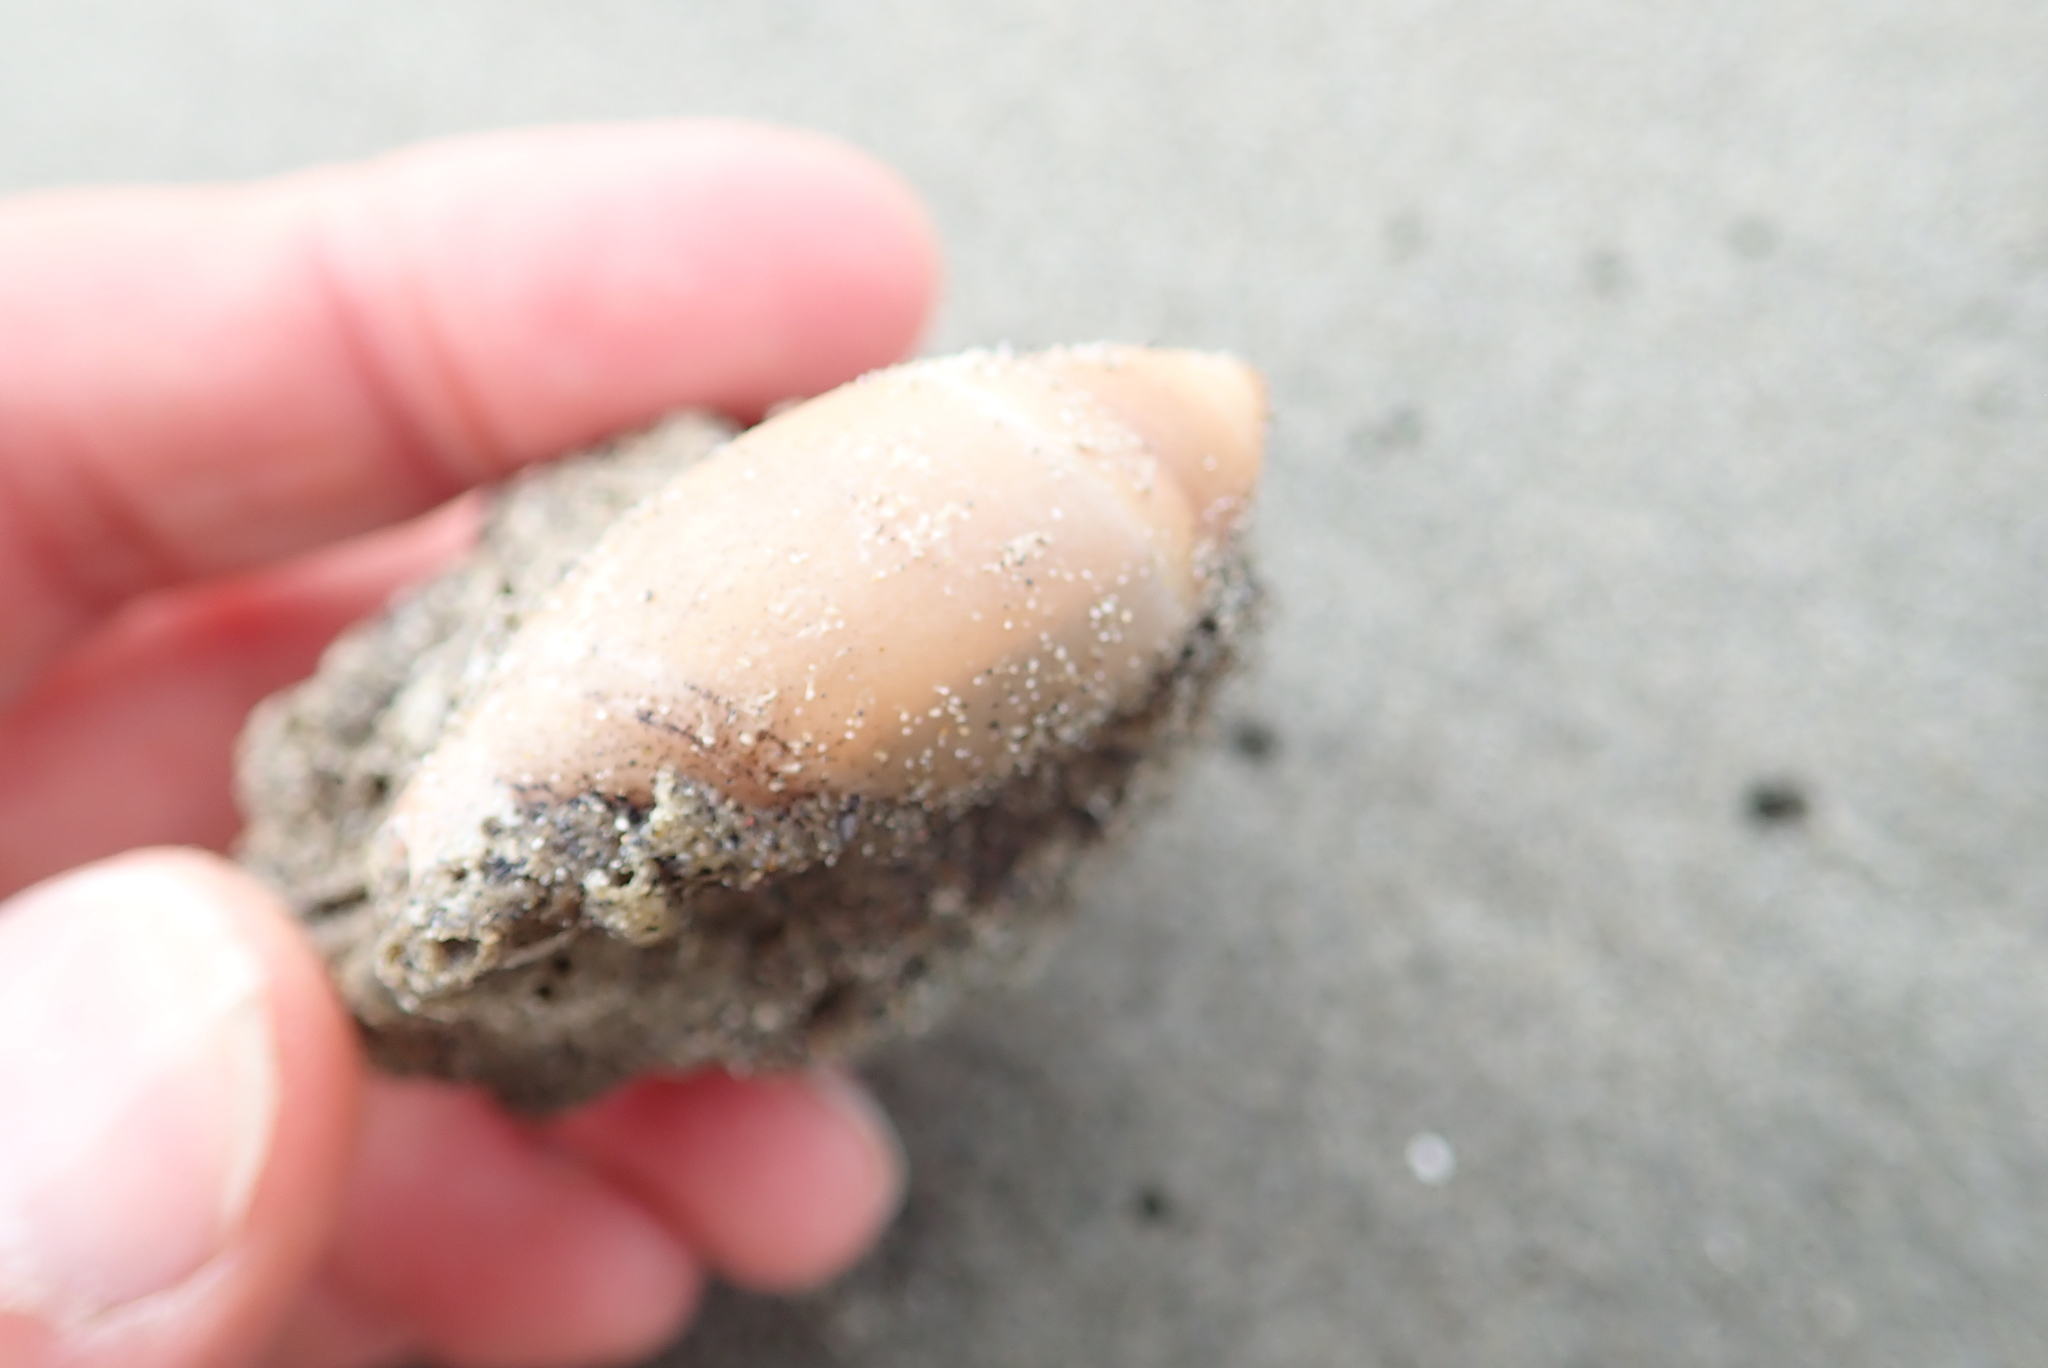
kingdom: Animalia
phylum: Mollusca
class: Gastropoda
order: Neogastropoda
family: Ancillariidae
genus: Amalda
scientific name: Amalda mucronata
